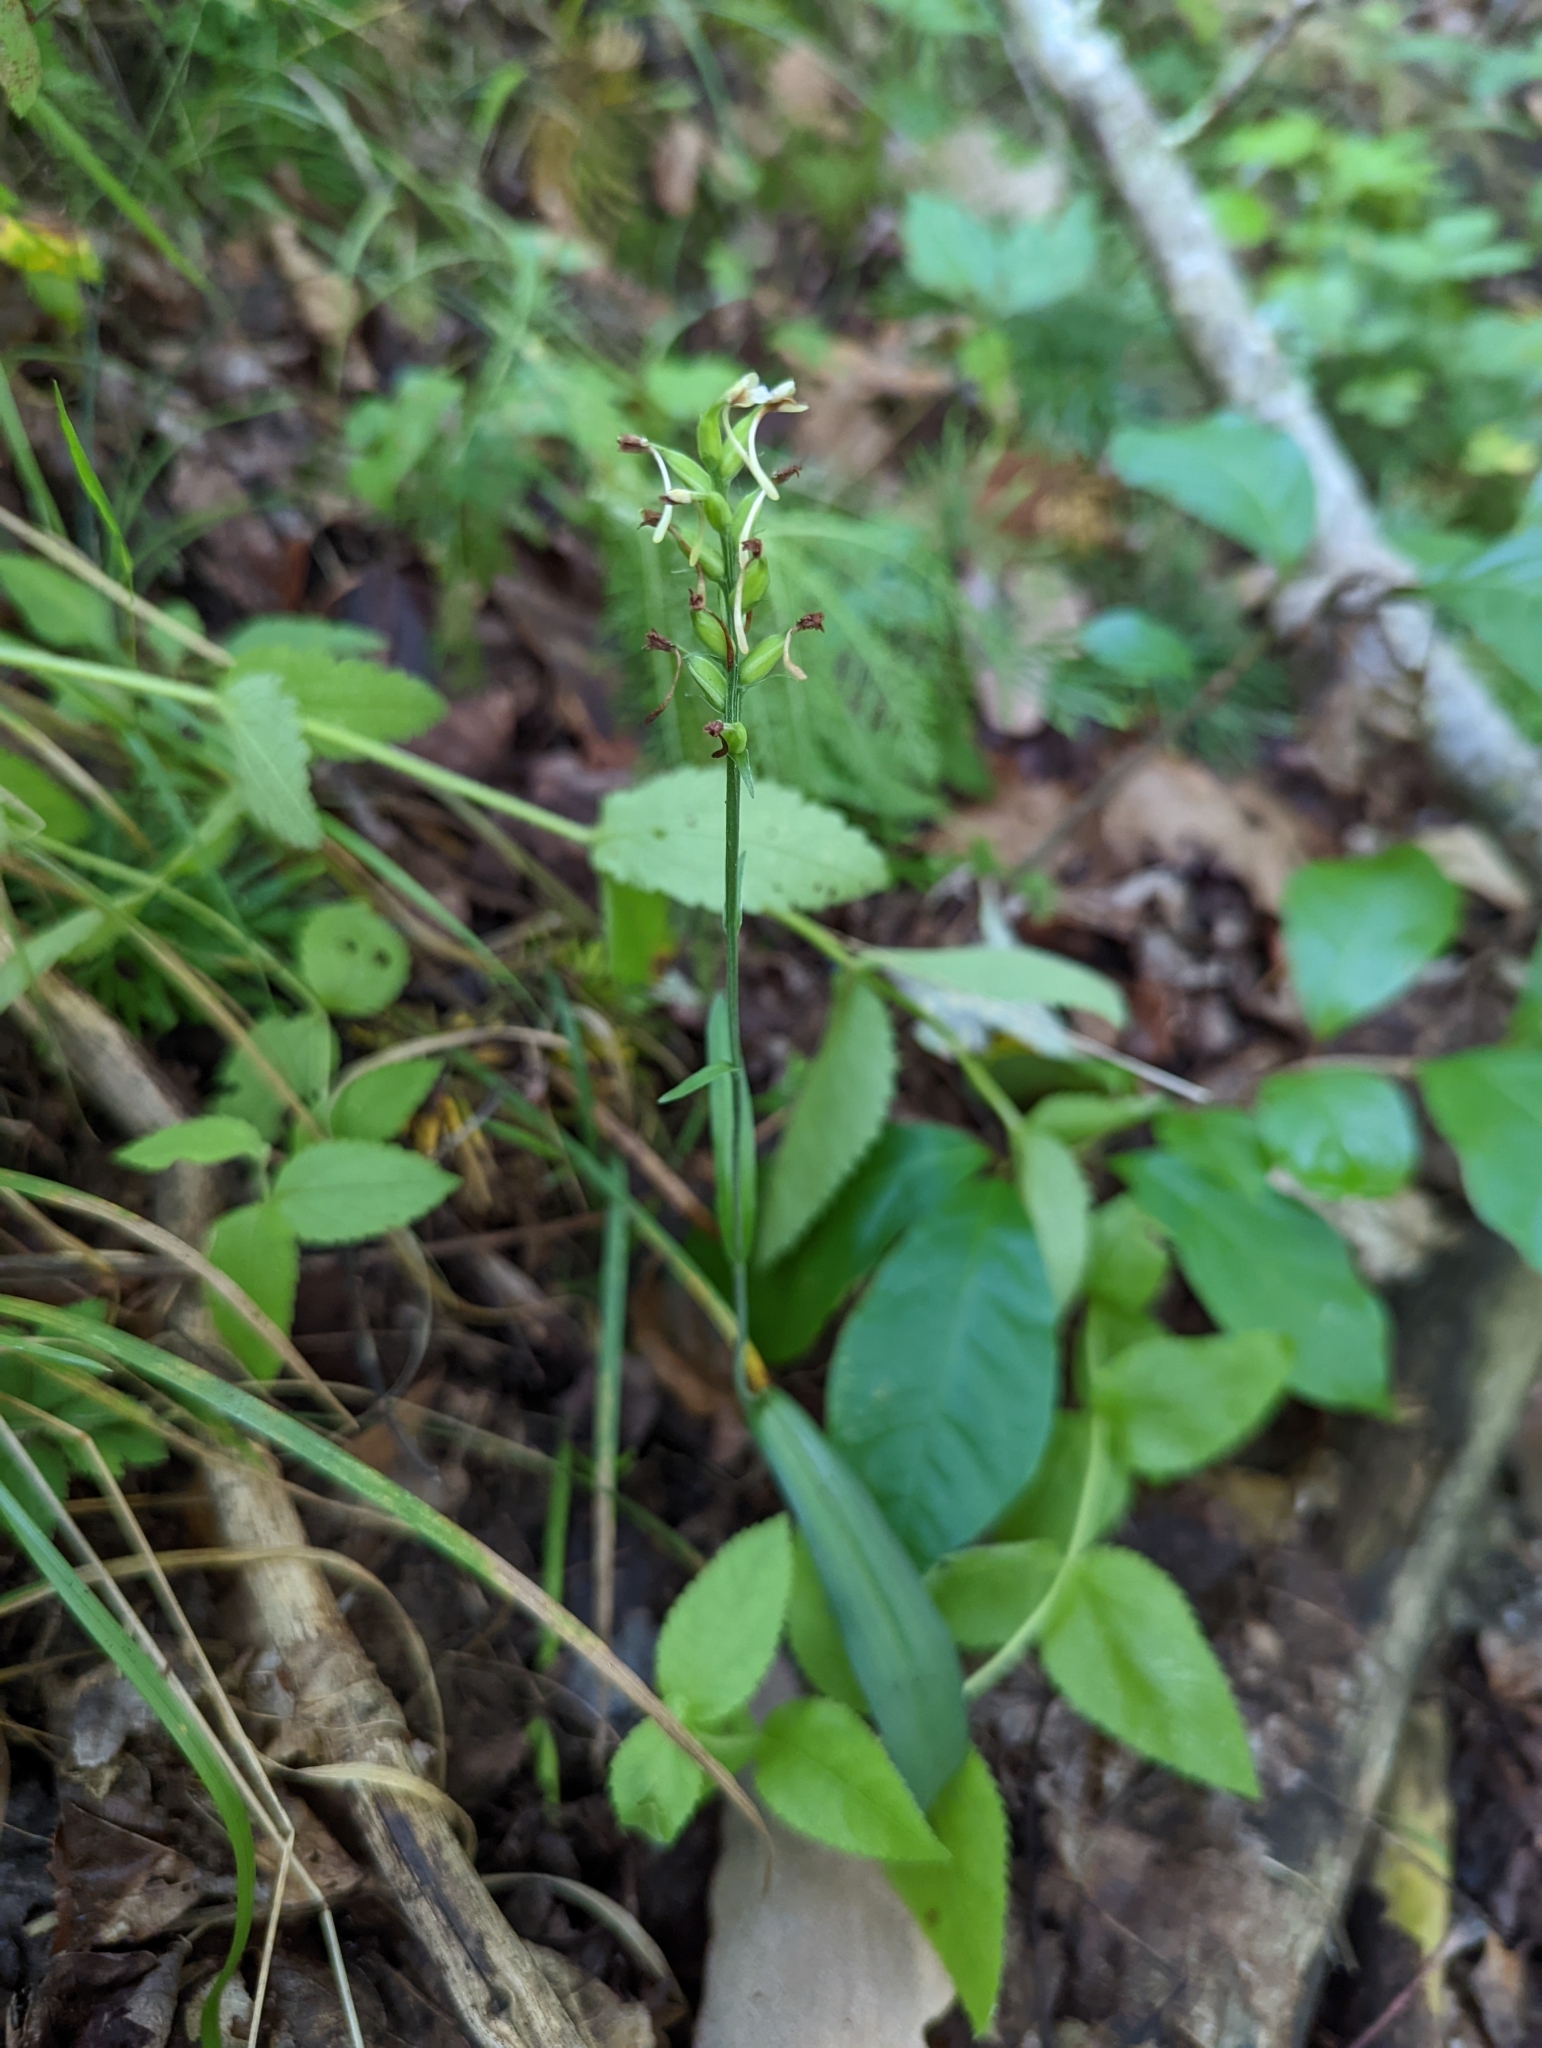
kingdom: Plantae
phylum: Tracheophyta
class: Liliopsida
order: Asparagales
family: Orchidaceae
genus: Platanthera
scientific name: Platanthera clavellata
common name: Club-spur orchid
